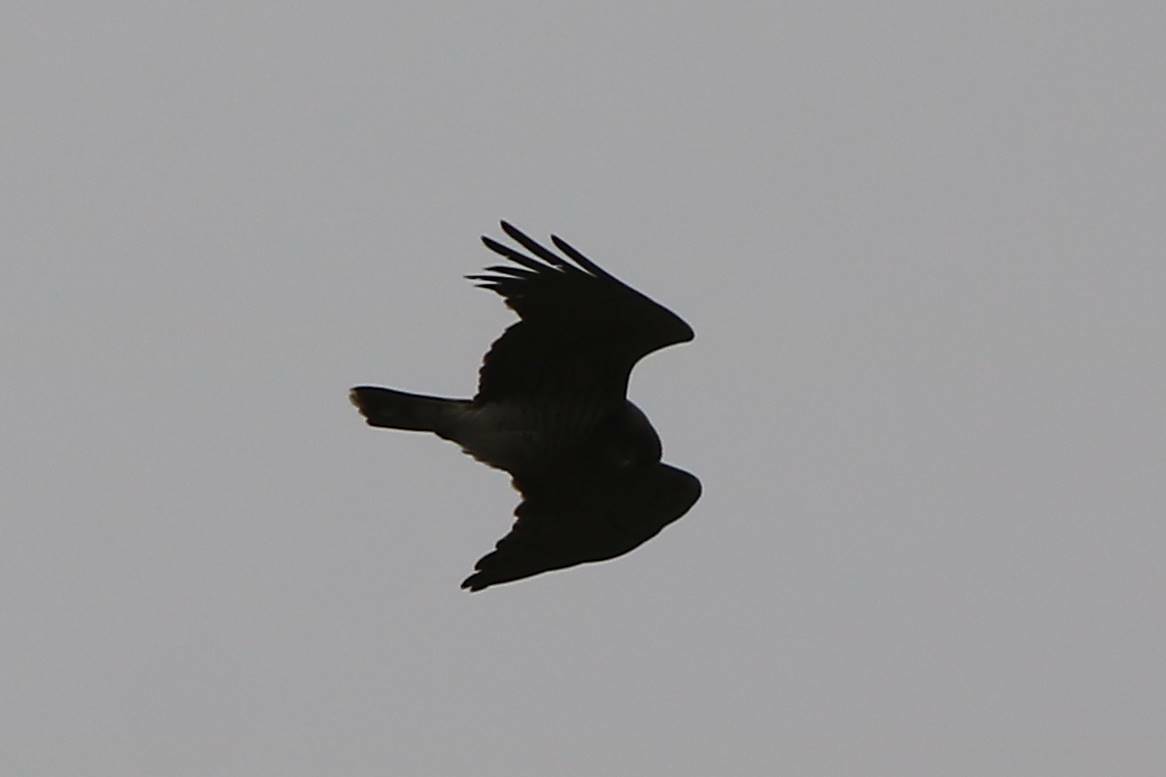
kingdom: Animalia
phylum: Chordata
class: Aves
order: Accipitriformes
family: Accipitridae
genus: Circaetus
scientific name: Circaetus gallicus
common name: Short-toed snake eagle
